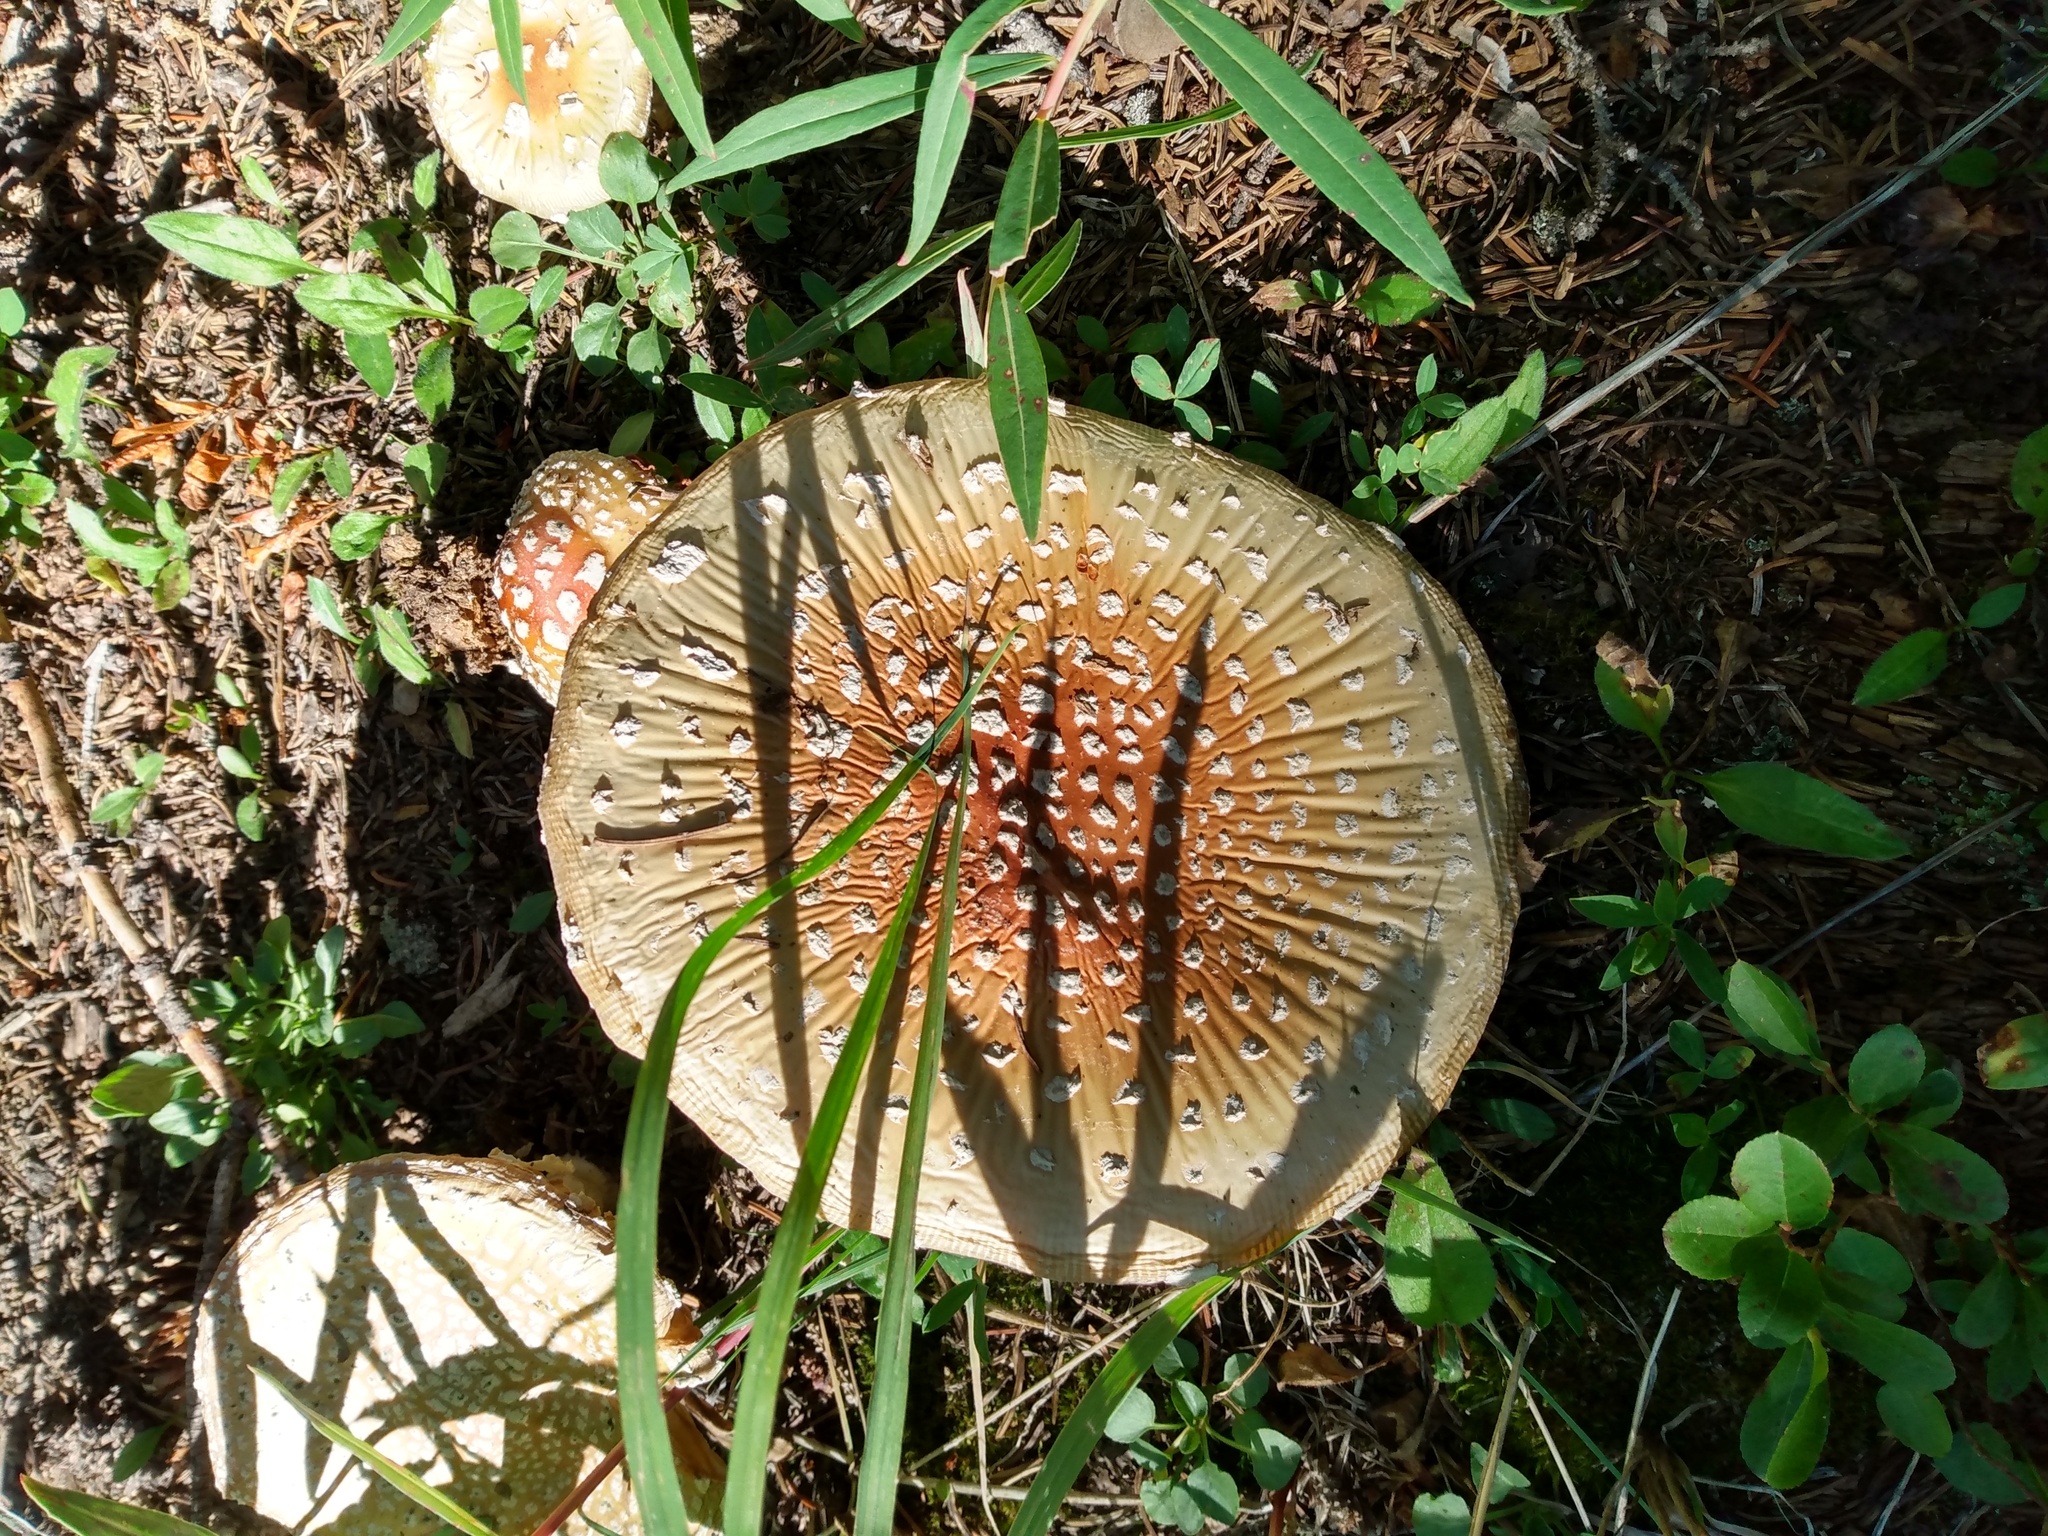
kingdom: Fungi
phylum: Basidiomycota
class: Agaricomycetes
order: Agaricales
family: Amanitaceae
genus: Amanita
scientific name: Amanita muscaria
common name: Fly agaric
